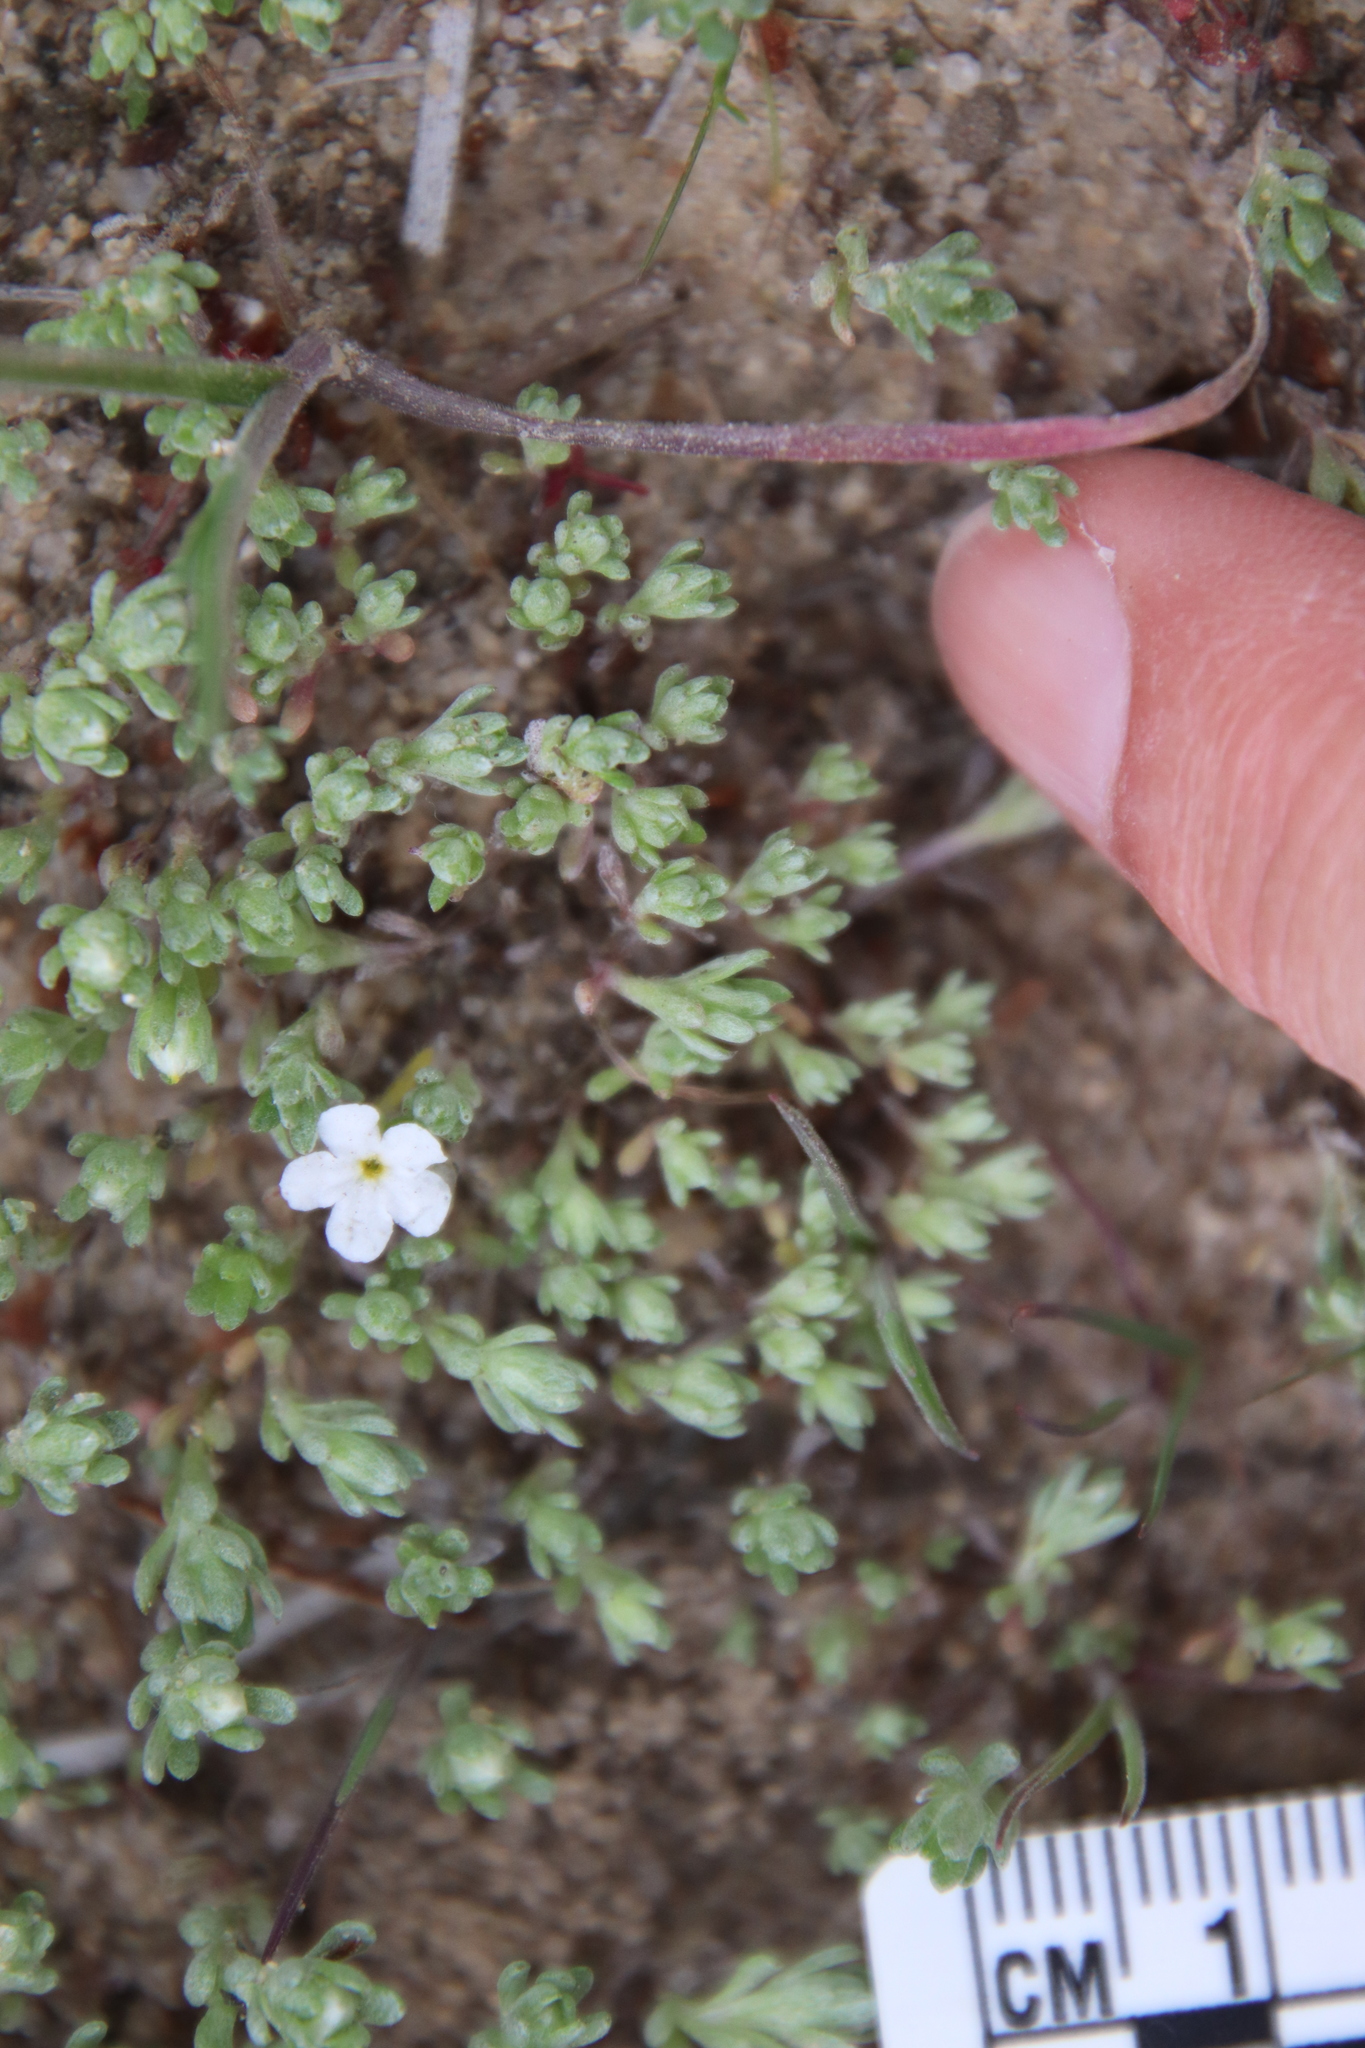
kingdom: Plantae
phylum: Tracheophyta
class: Magnoliopsida
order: Asterales
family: Asteraceae
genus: Stylocline
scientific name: Stylocline gnaphaloides
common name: Everlasting nest-straw
